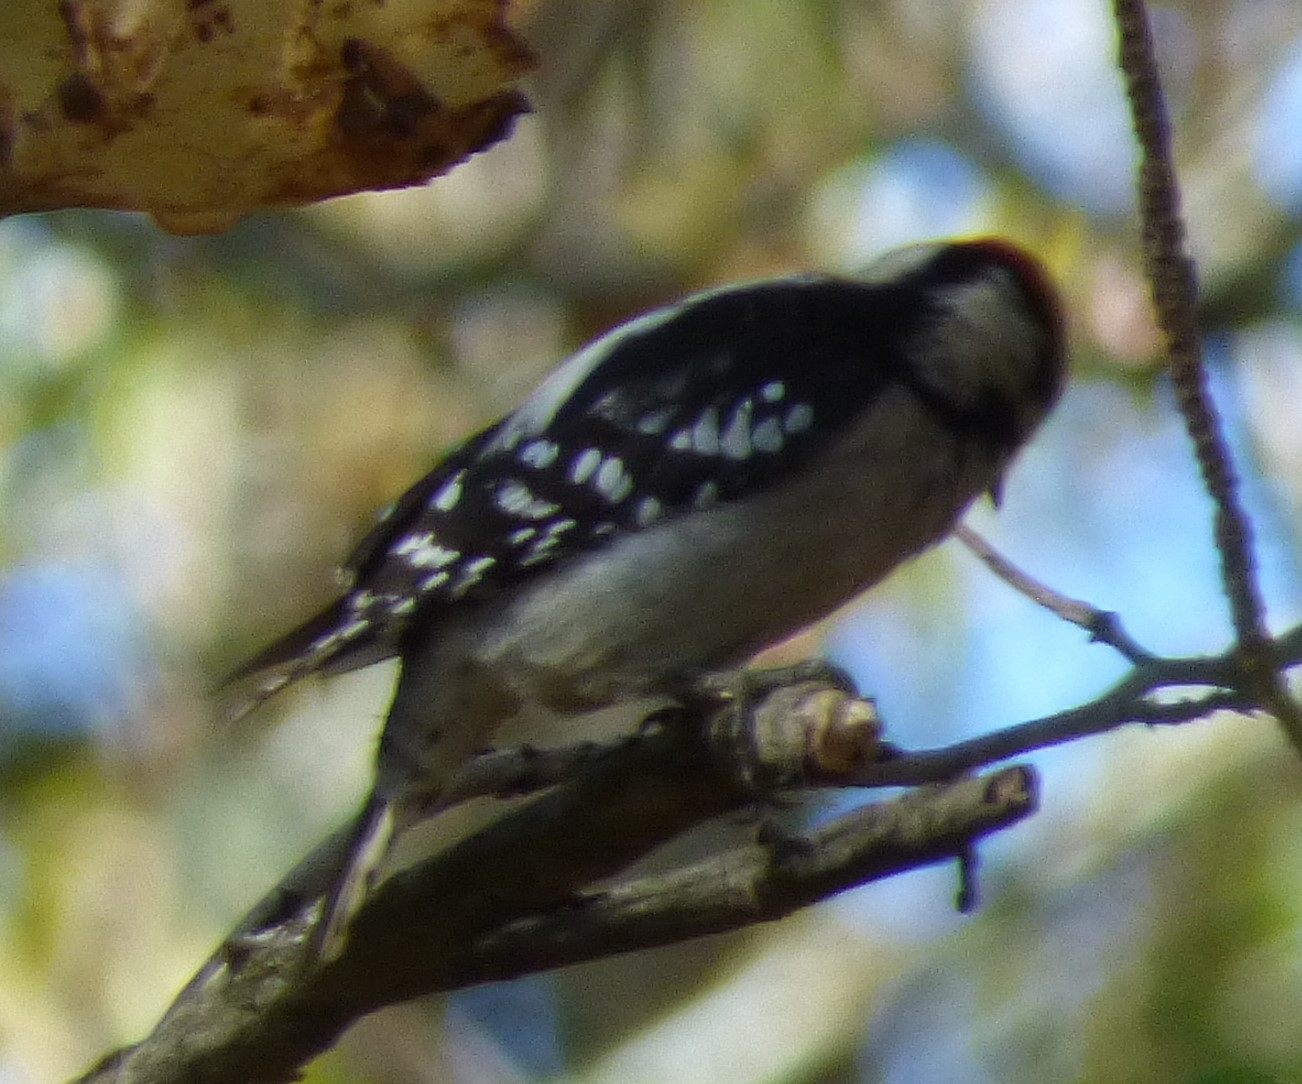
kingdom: Animalia
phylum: Chordata
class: Aves
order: Piciformes
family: Picidae
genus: Dryobates
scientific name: Dryobates pubescens
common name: Downy woodpecker
